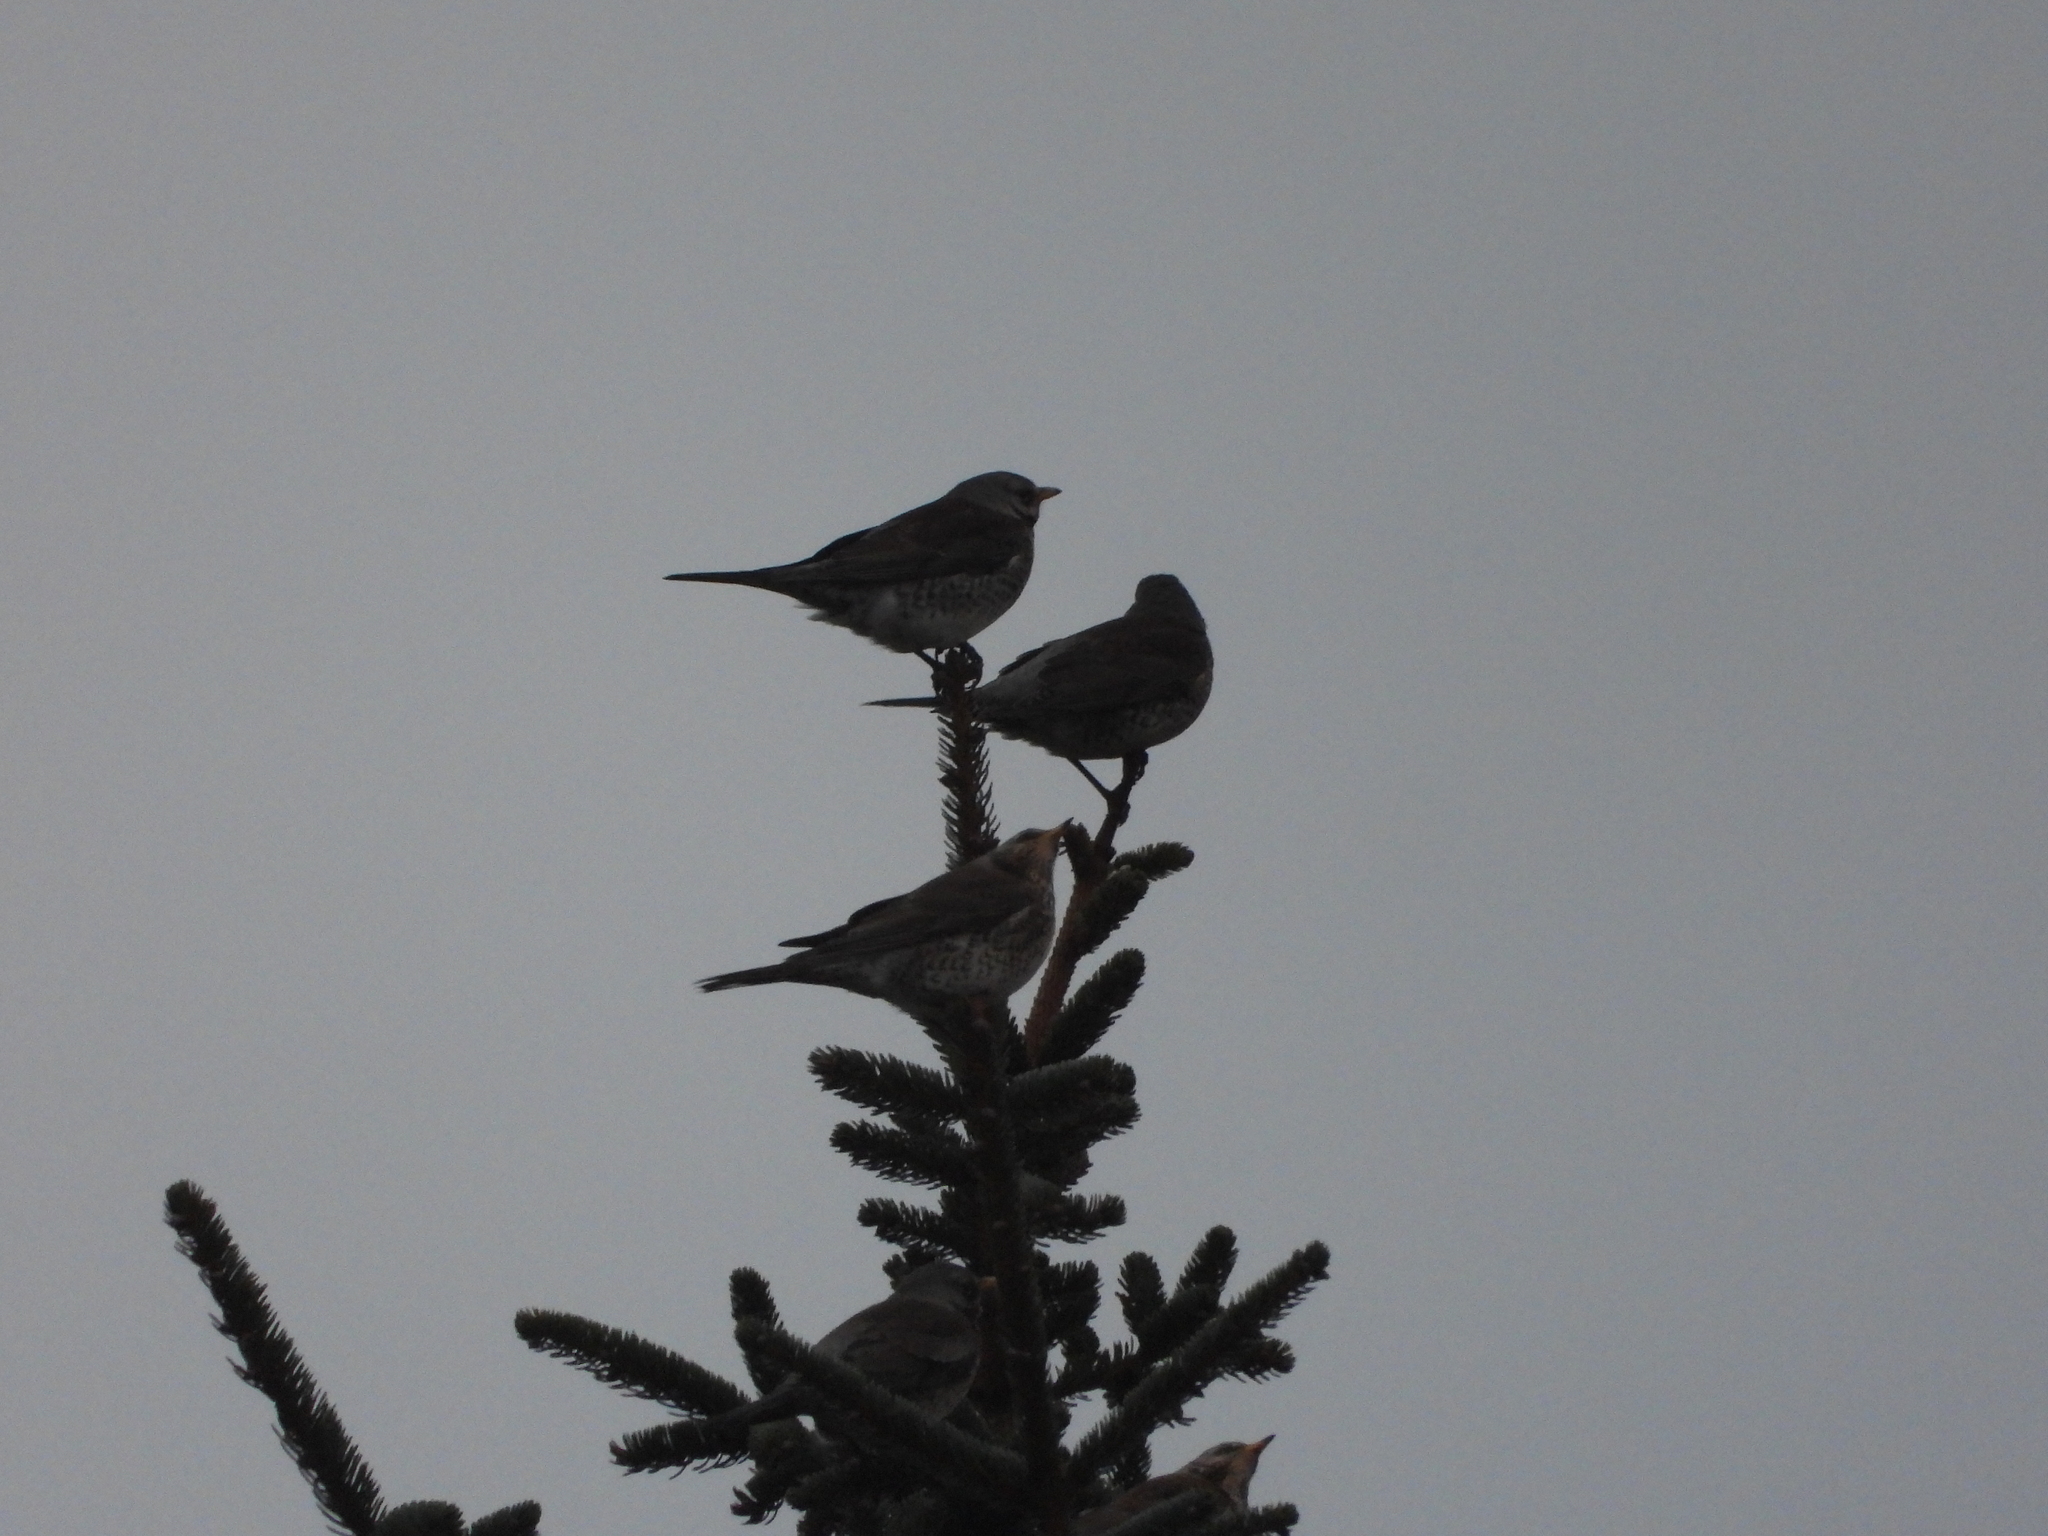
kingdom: Animalia
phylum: Chordata
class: Aves
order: Passeriformes
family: Turdidae
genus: Turdus
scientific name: Turdus pilaris
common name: Fieldfare
